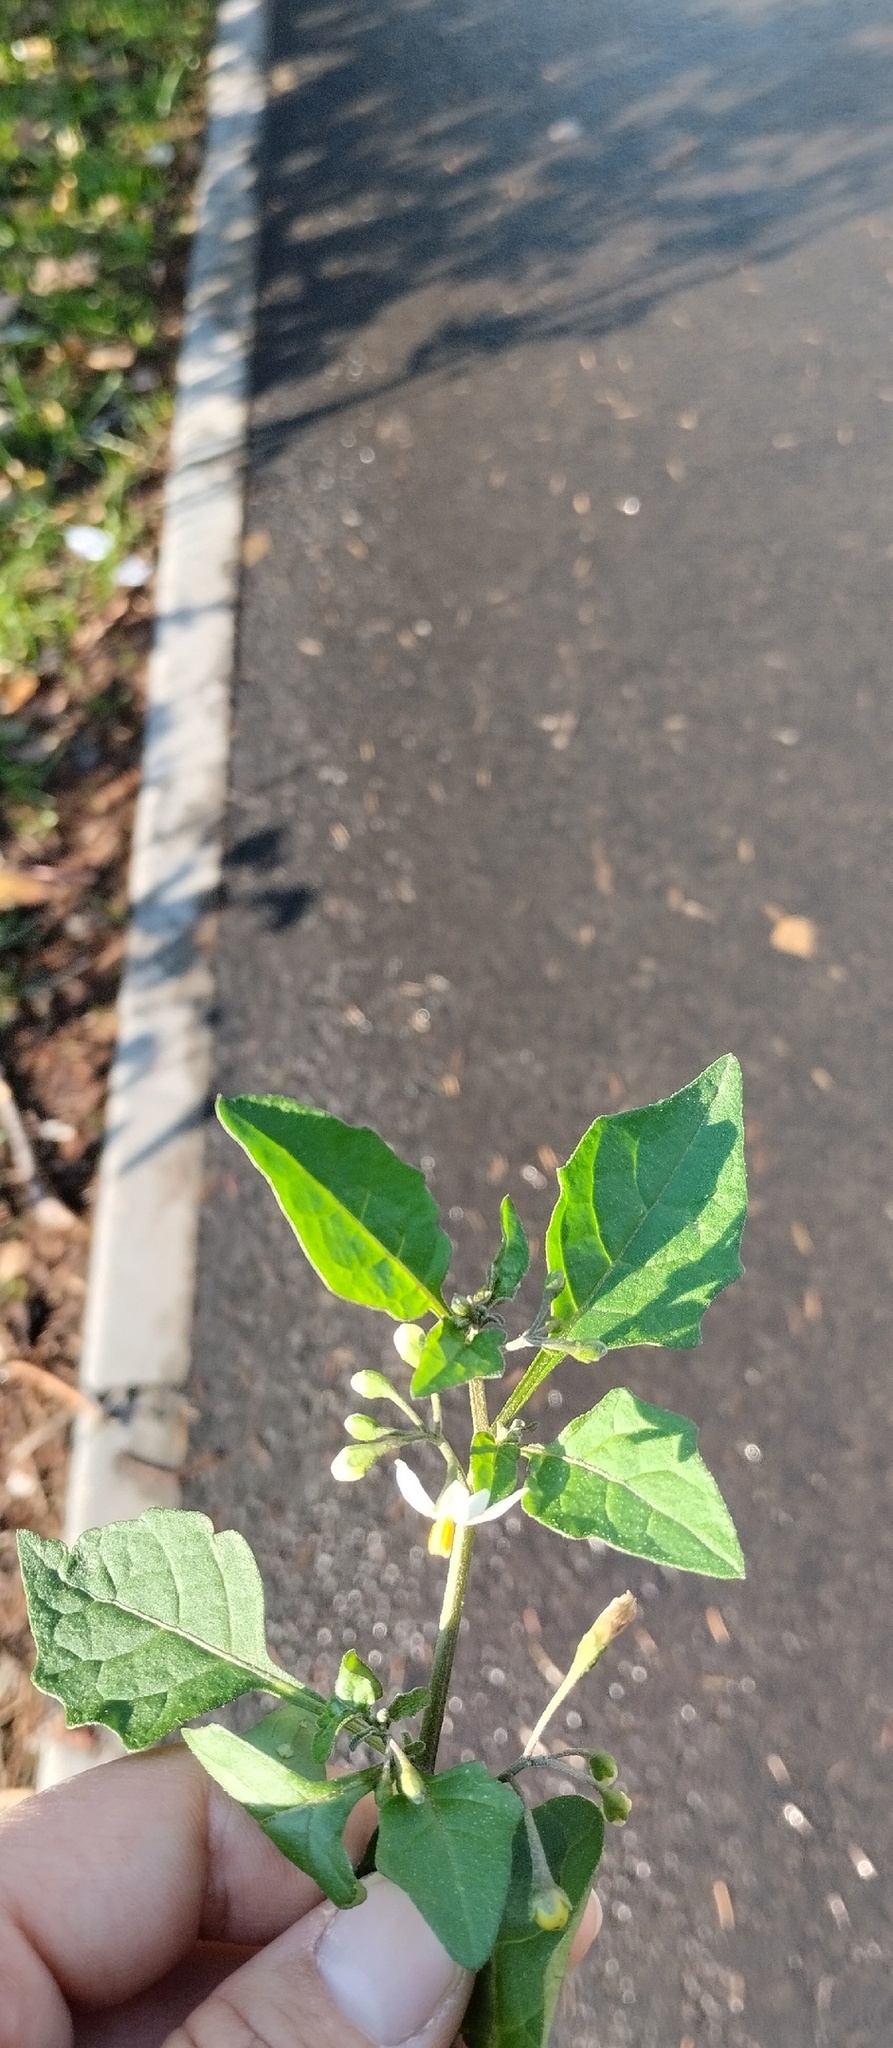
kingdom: Plantae
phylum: Tracheophyta
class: Magnoliopsida
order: Solanales
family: Solanaceae
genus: Solanum
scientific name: Solanum nigrum
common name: Black nightshade
